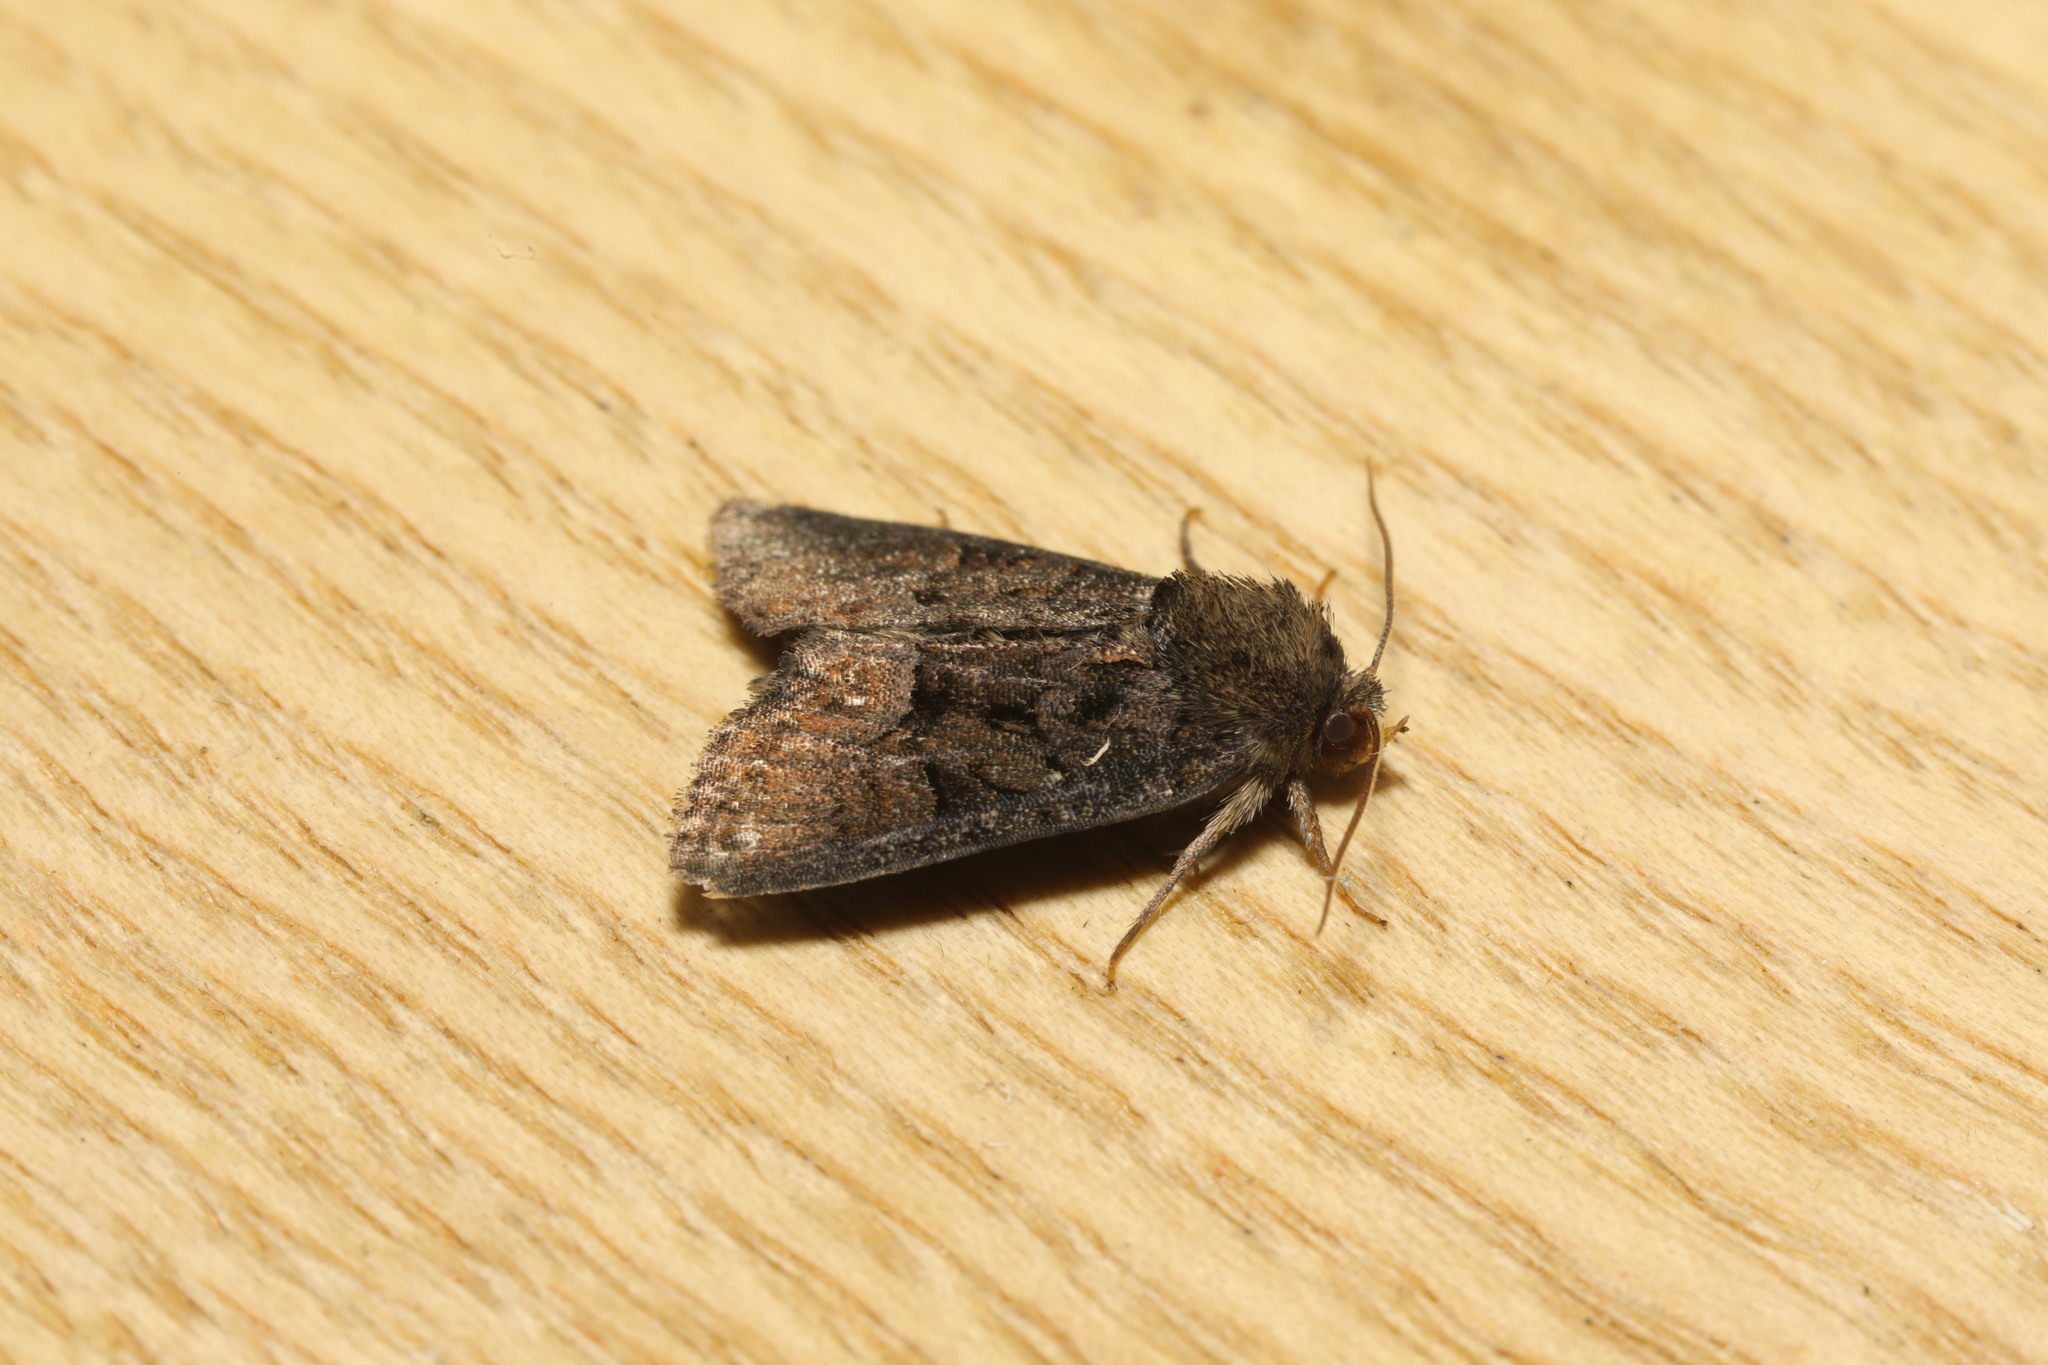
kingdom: Animalia
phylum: Arthropoda
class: Insecta
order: Lepidoptera
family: Noctuidae
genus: Oligia
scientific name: Oligia
